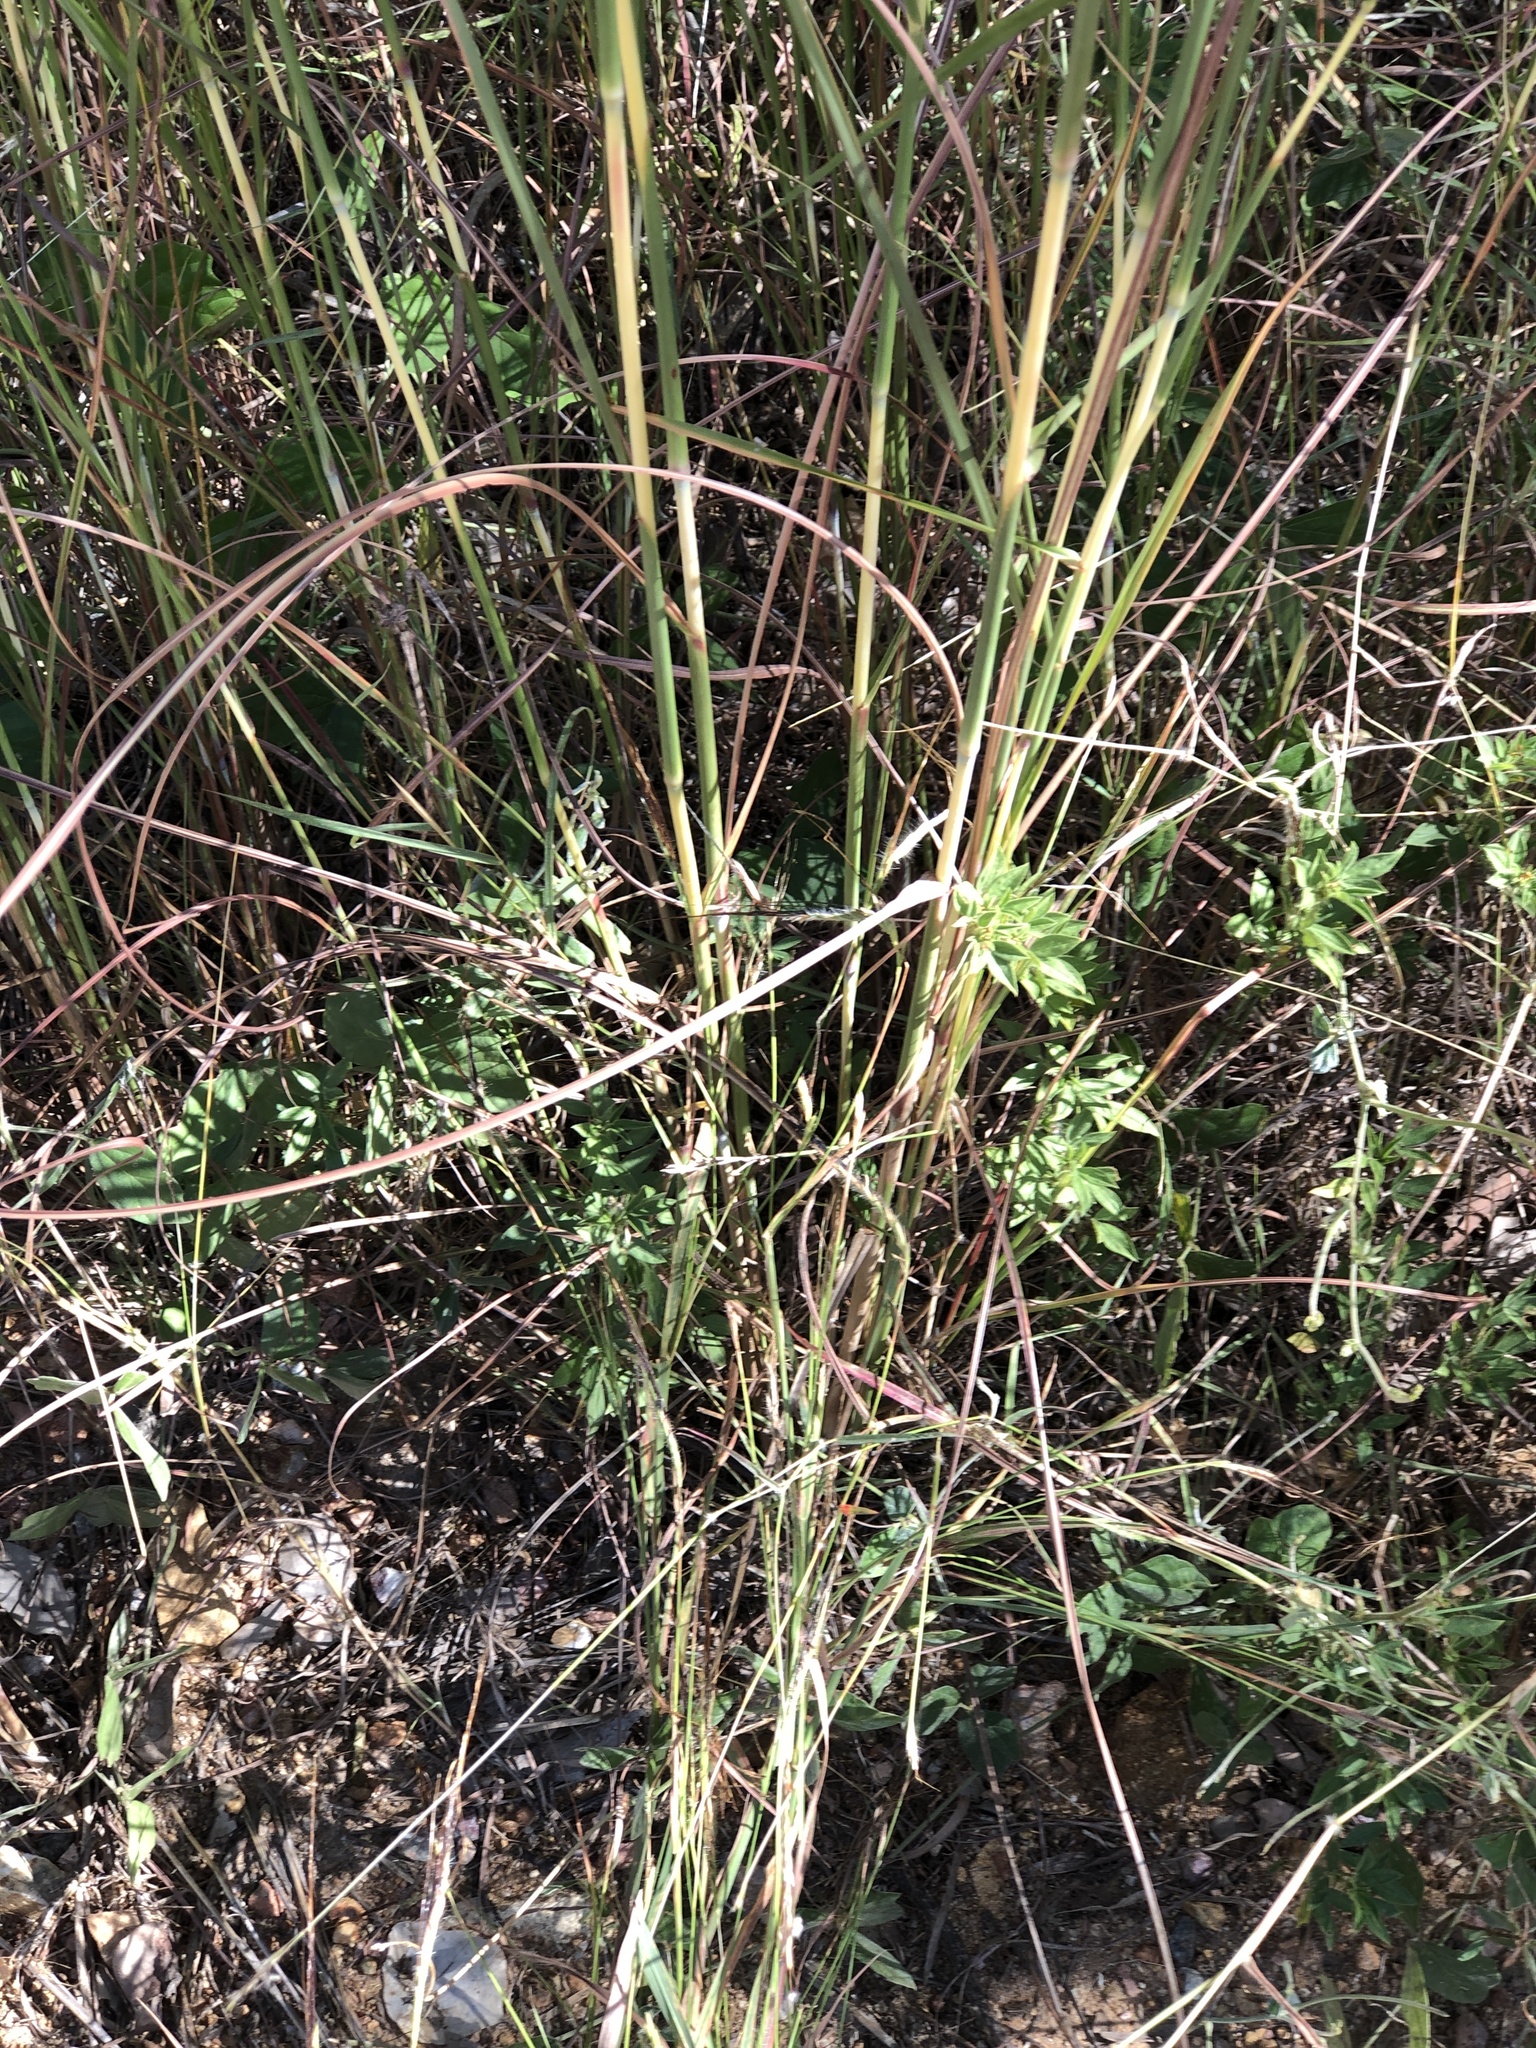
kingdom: Plantae
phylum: Tracheophyta
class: Liliopsida
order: Poales
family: Poaceae
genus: Hyparrhenia
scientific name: Hyparrhenia rufa
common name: Jaraguagrass
